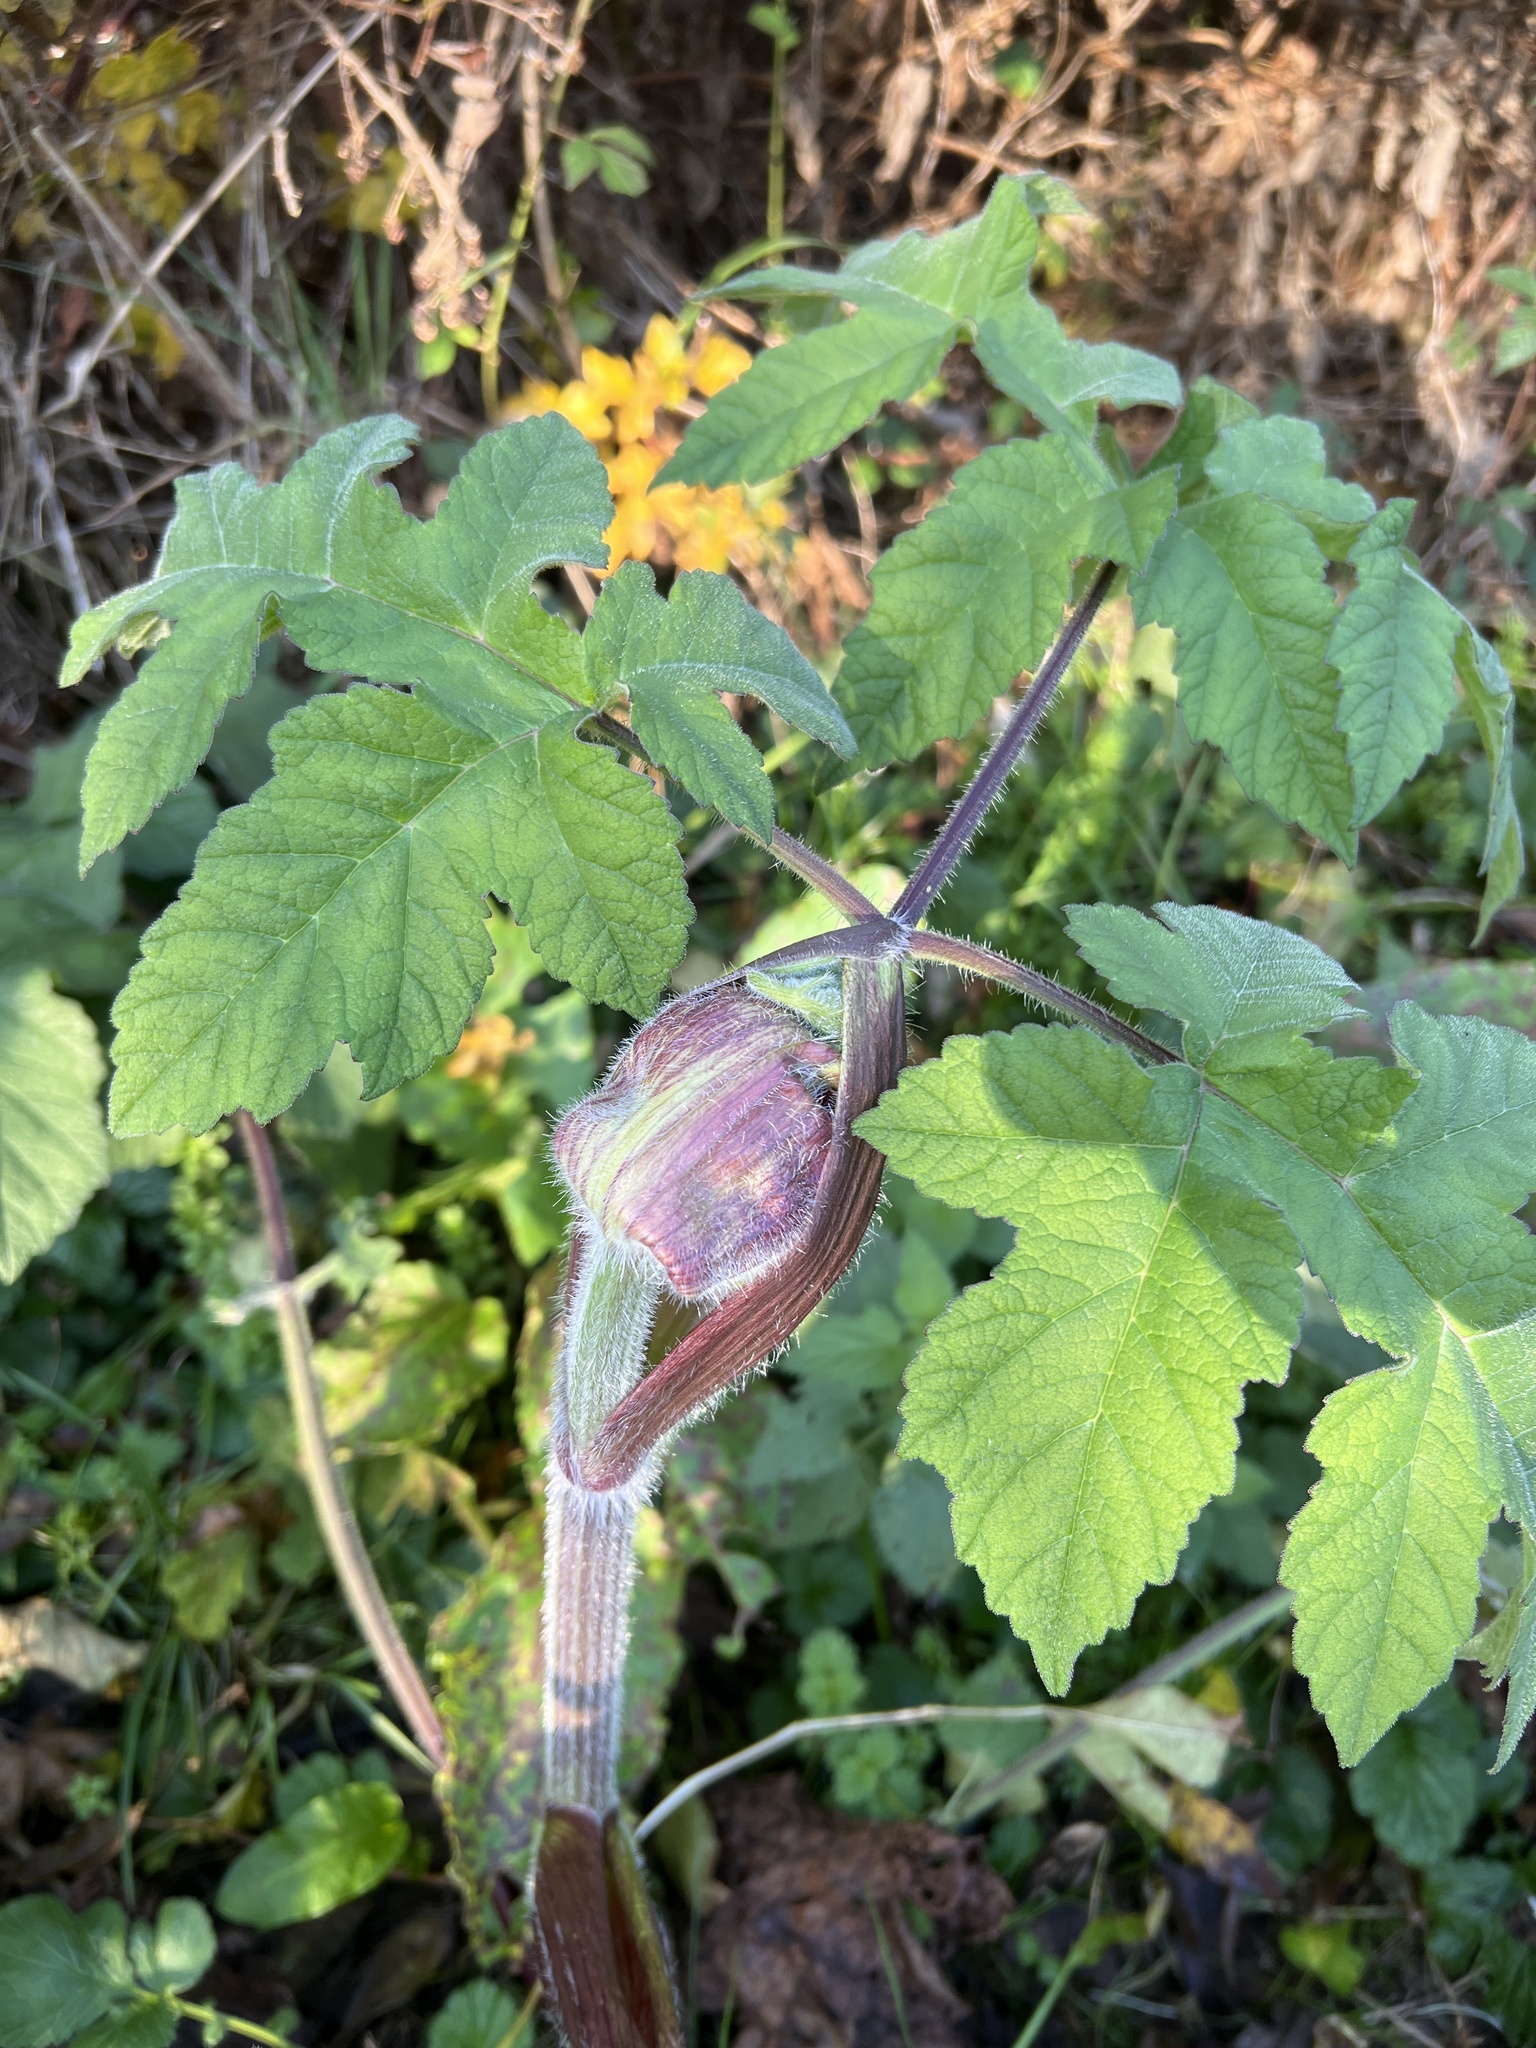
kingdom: Plantae
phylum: Tracheophyta
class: Magnoliopsida
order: Apiales
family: Apiaceae
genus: Heracleum
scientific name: Heracleum sphondylium
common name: Hogweed
